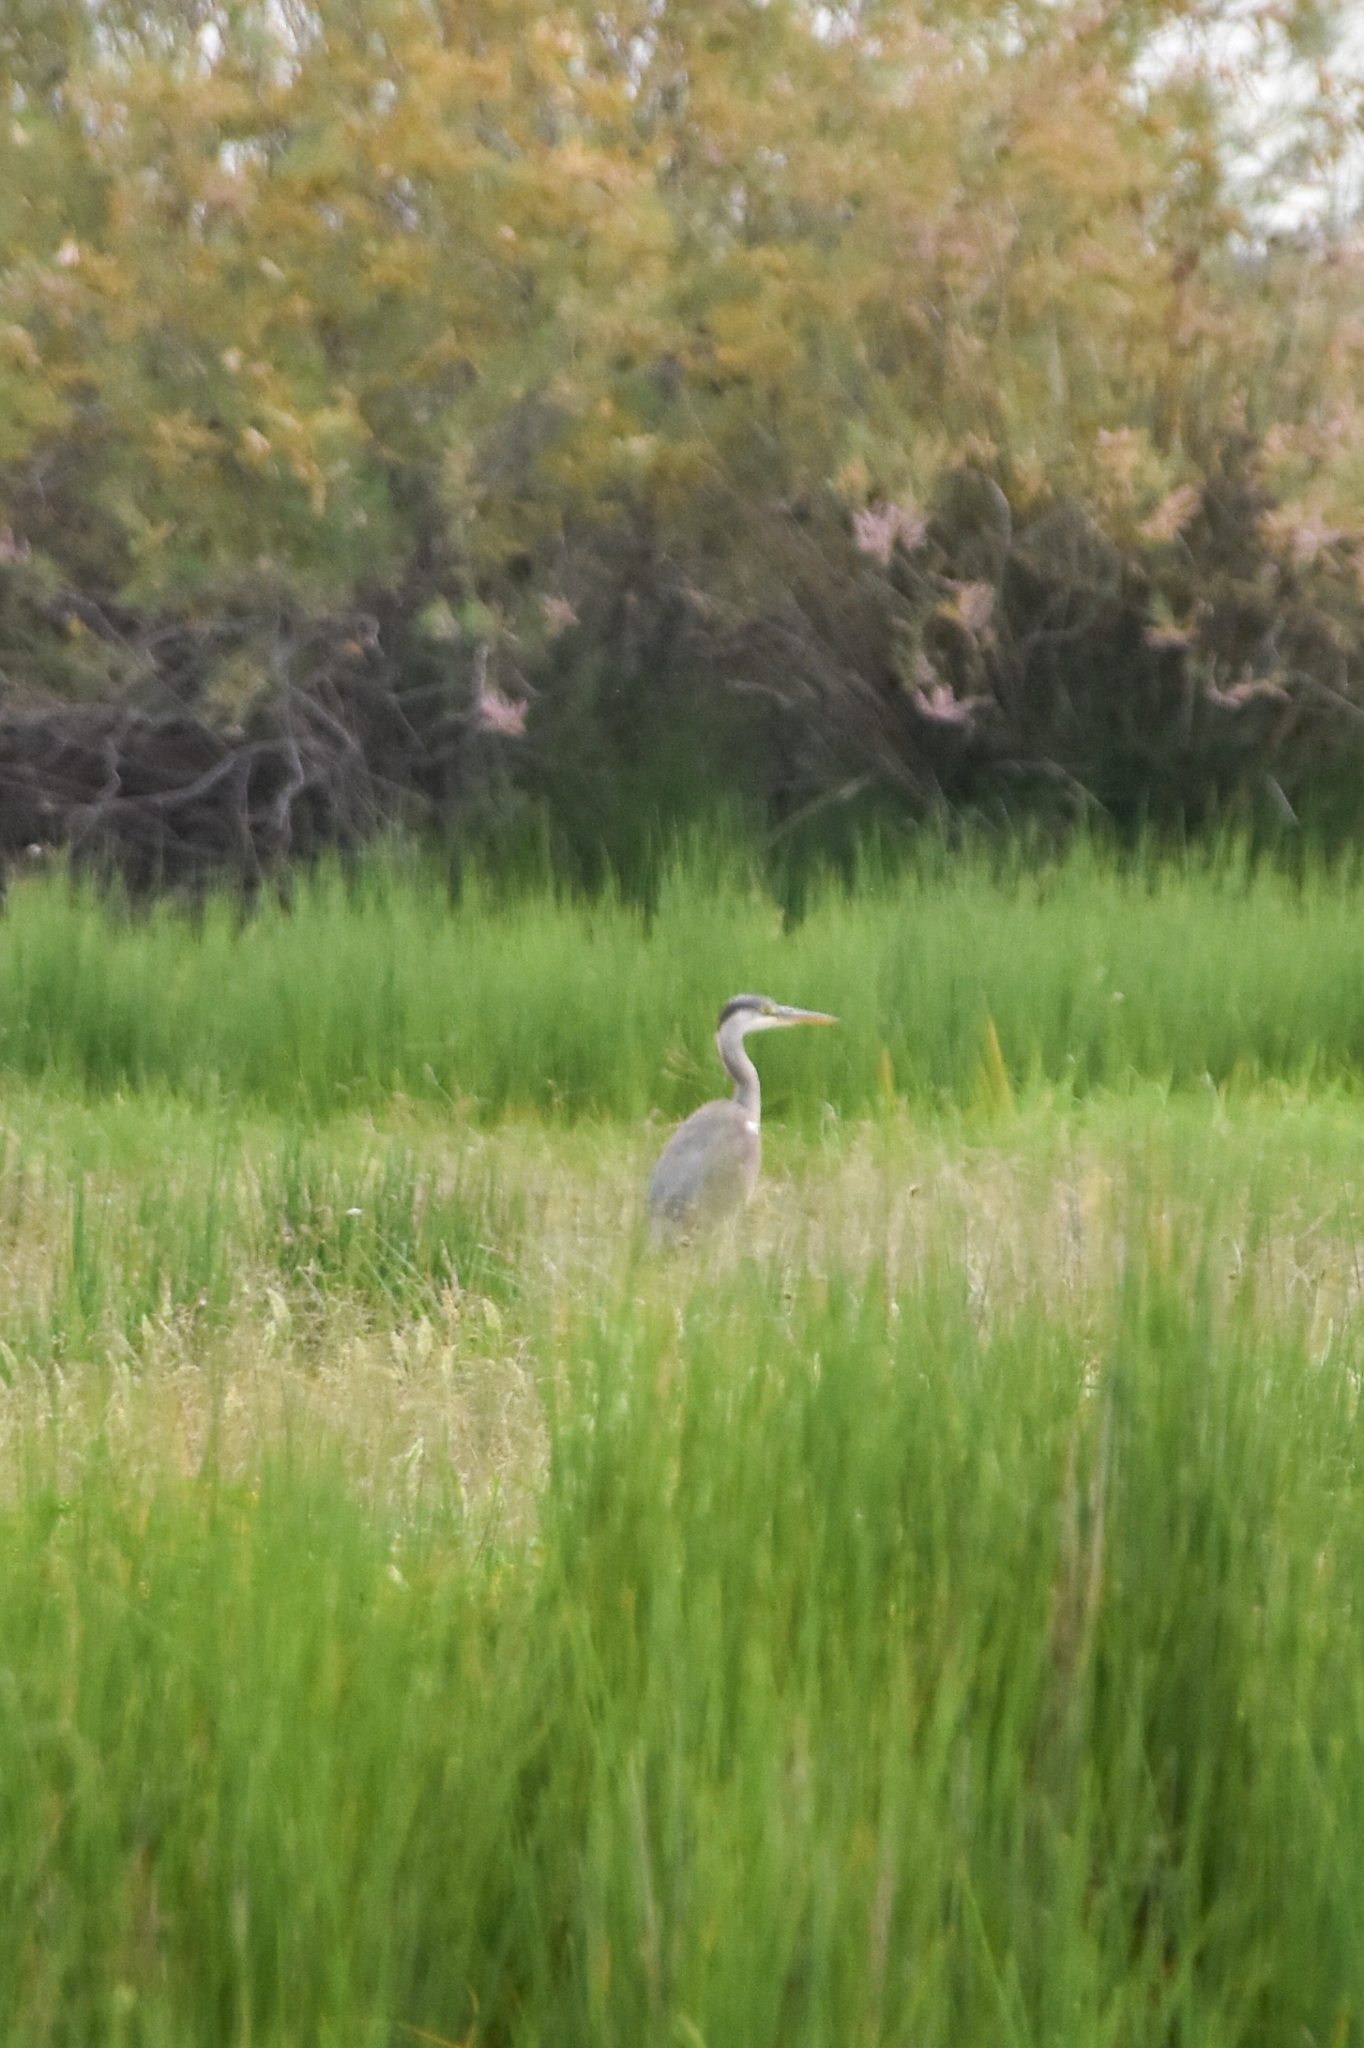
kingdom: Animalia
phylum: Chordata
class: Aves
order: Pelecaniformes
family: Ardeidae
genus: Ardea
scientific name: Ardea cinerea
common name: Grey heron
